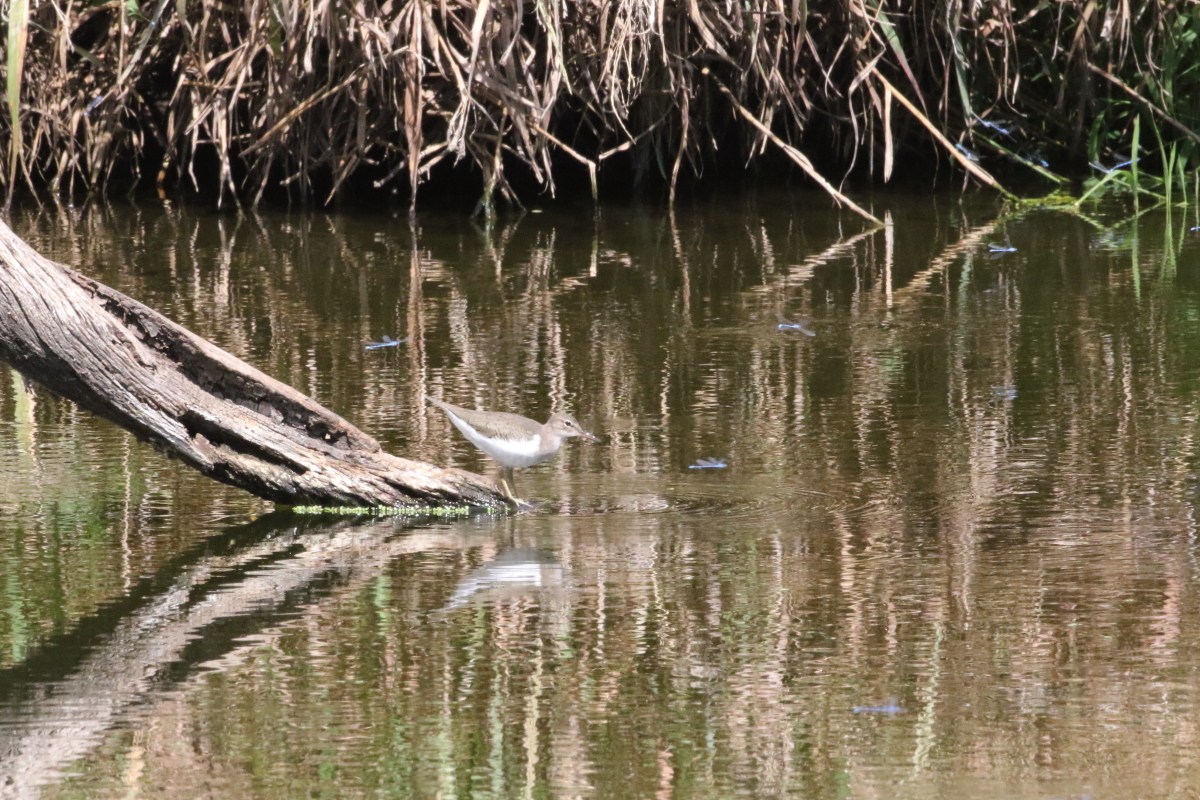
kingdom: Animalia
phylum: Chordata
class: Aves
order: Charadriiformes
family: Scolopacidae
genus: Actitis
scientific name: Actitis macularius
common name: Spotted sandpiper
